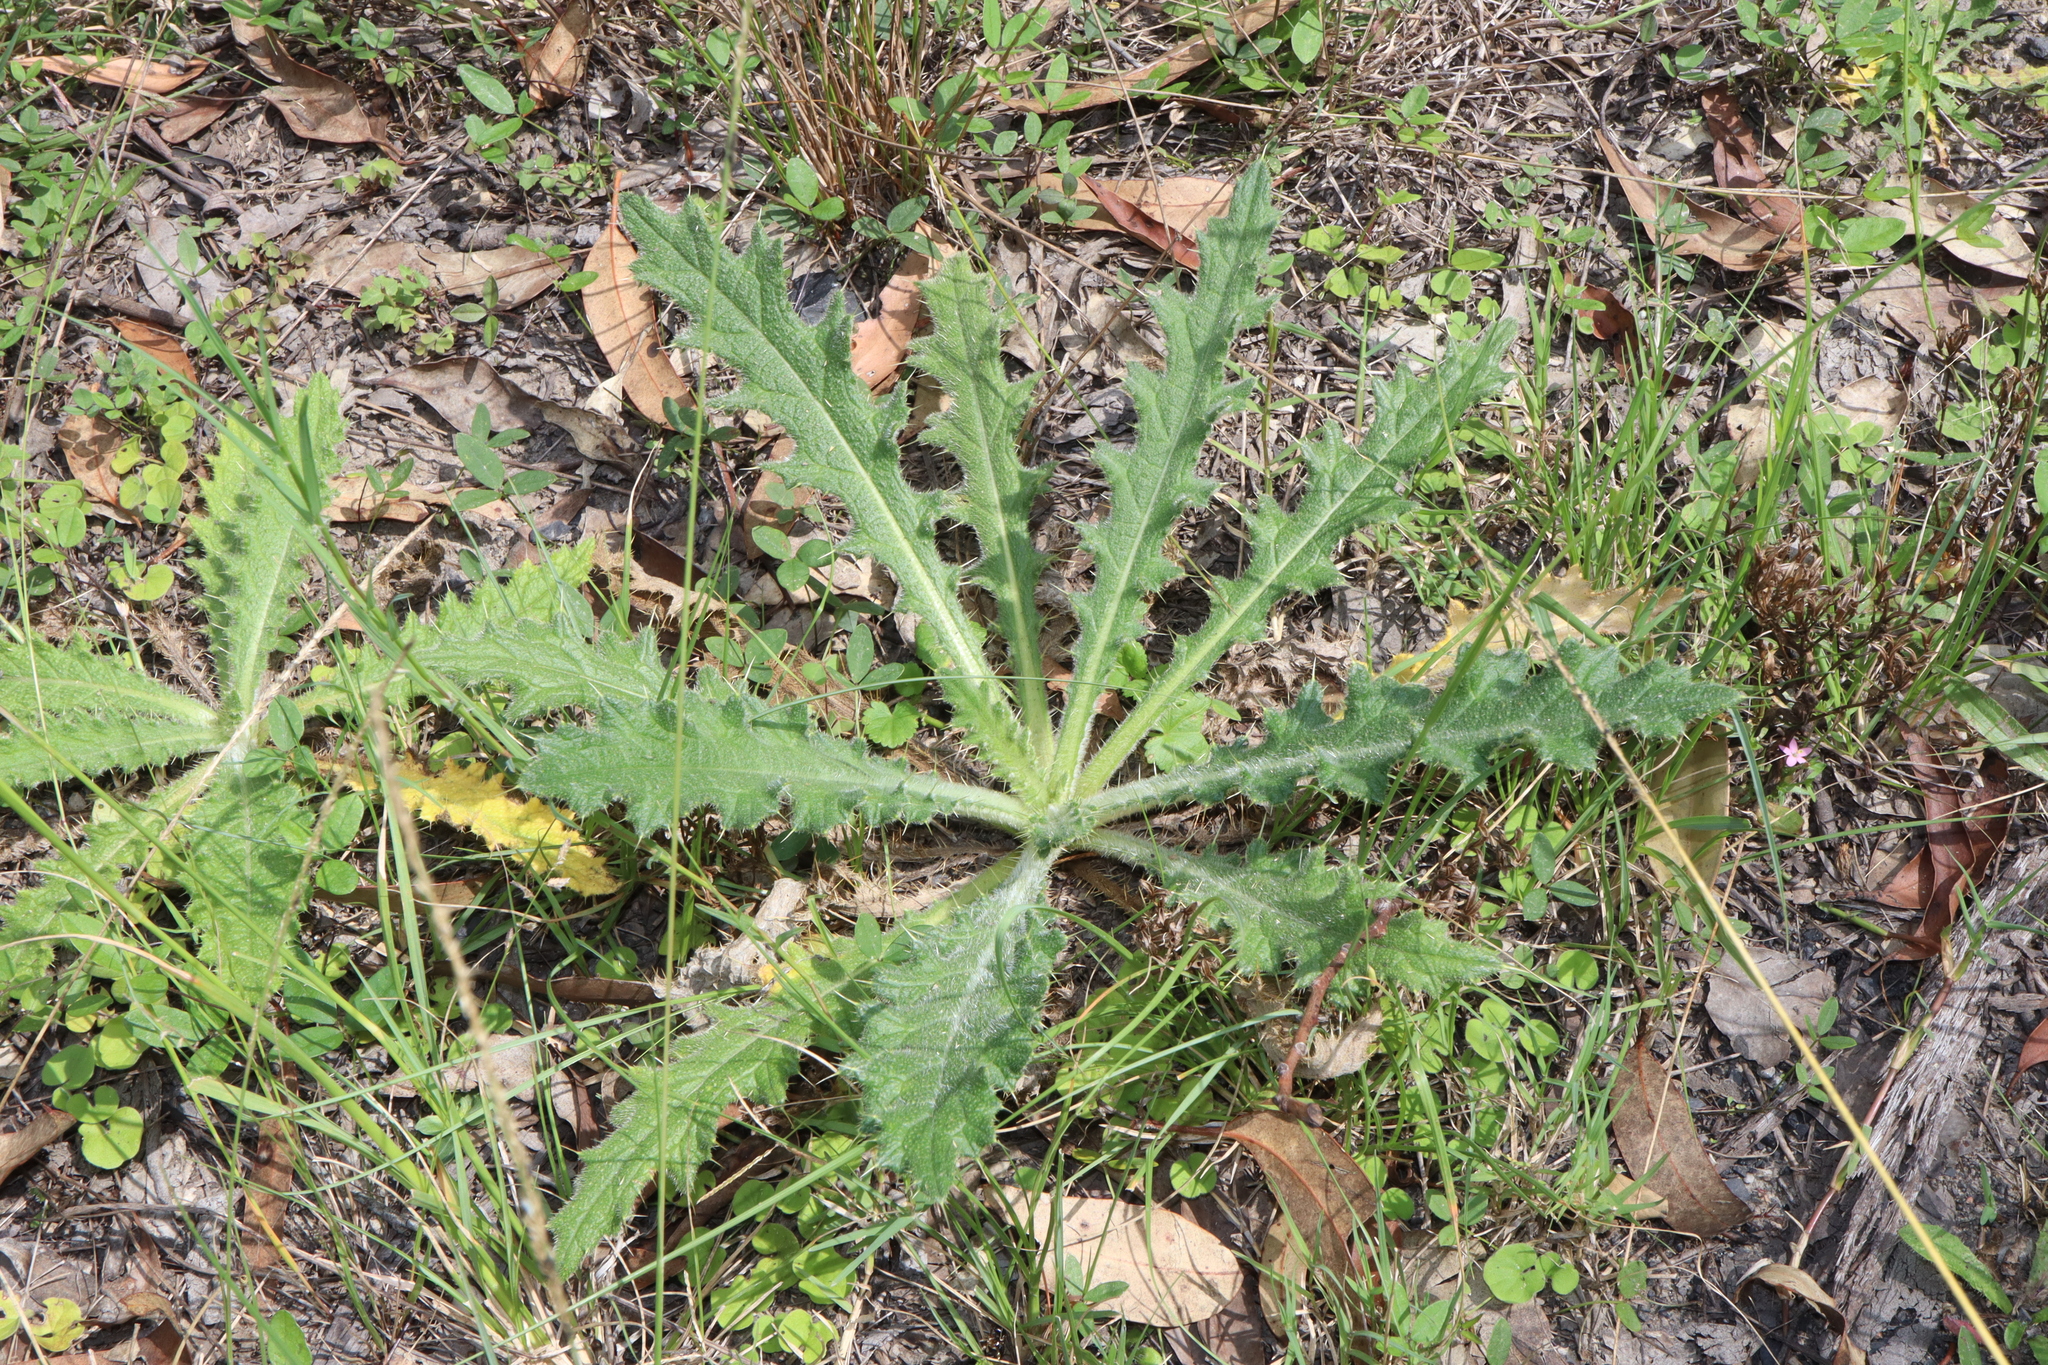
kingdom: Plantae
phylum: Tracheophyta
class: Magnoliopsida
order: Asterales
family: Asteraceae
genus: Cirsium
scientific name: Cirsium vulgare
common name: Bull thistle
